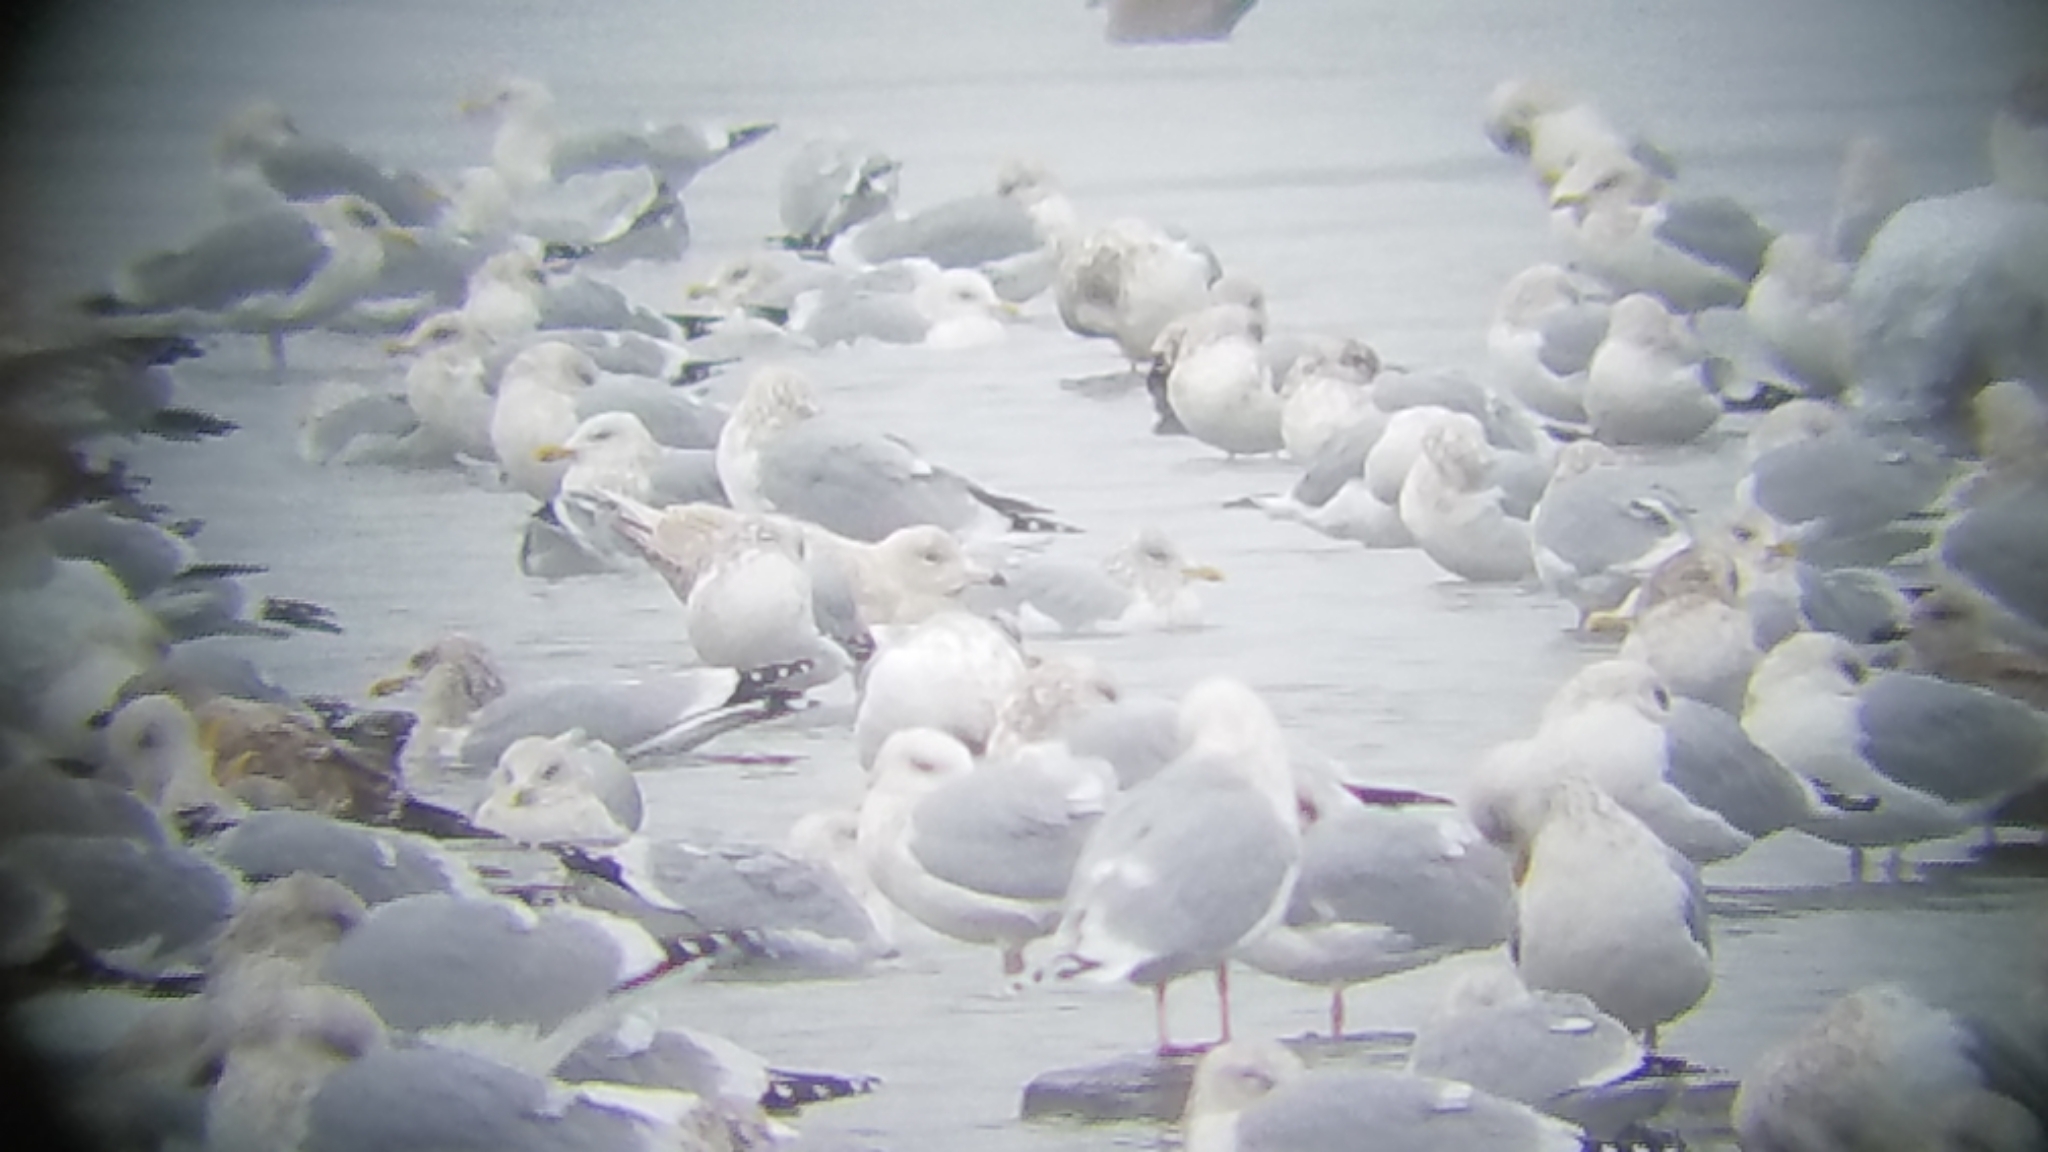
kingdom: Animalia
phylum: Chordata
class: Aves
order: Charadriiformes
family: Laridae
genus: Larus
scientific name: Larus hyperboreus
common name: Glaucous gull
